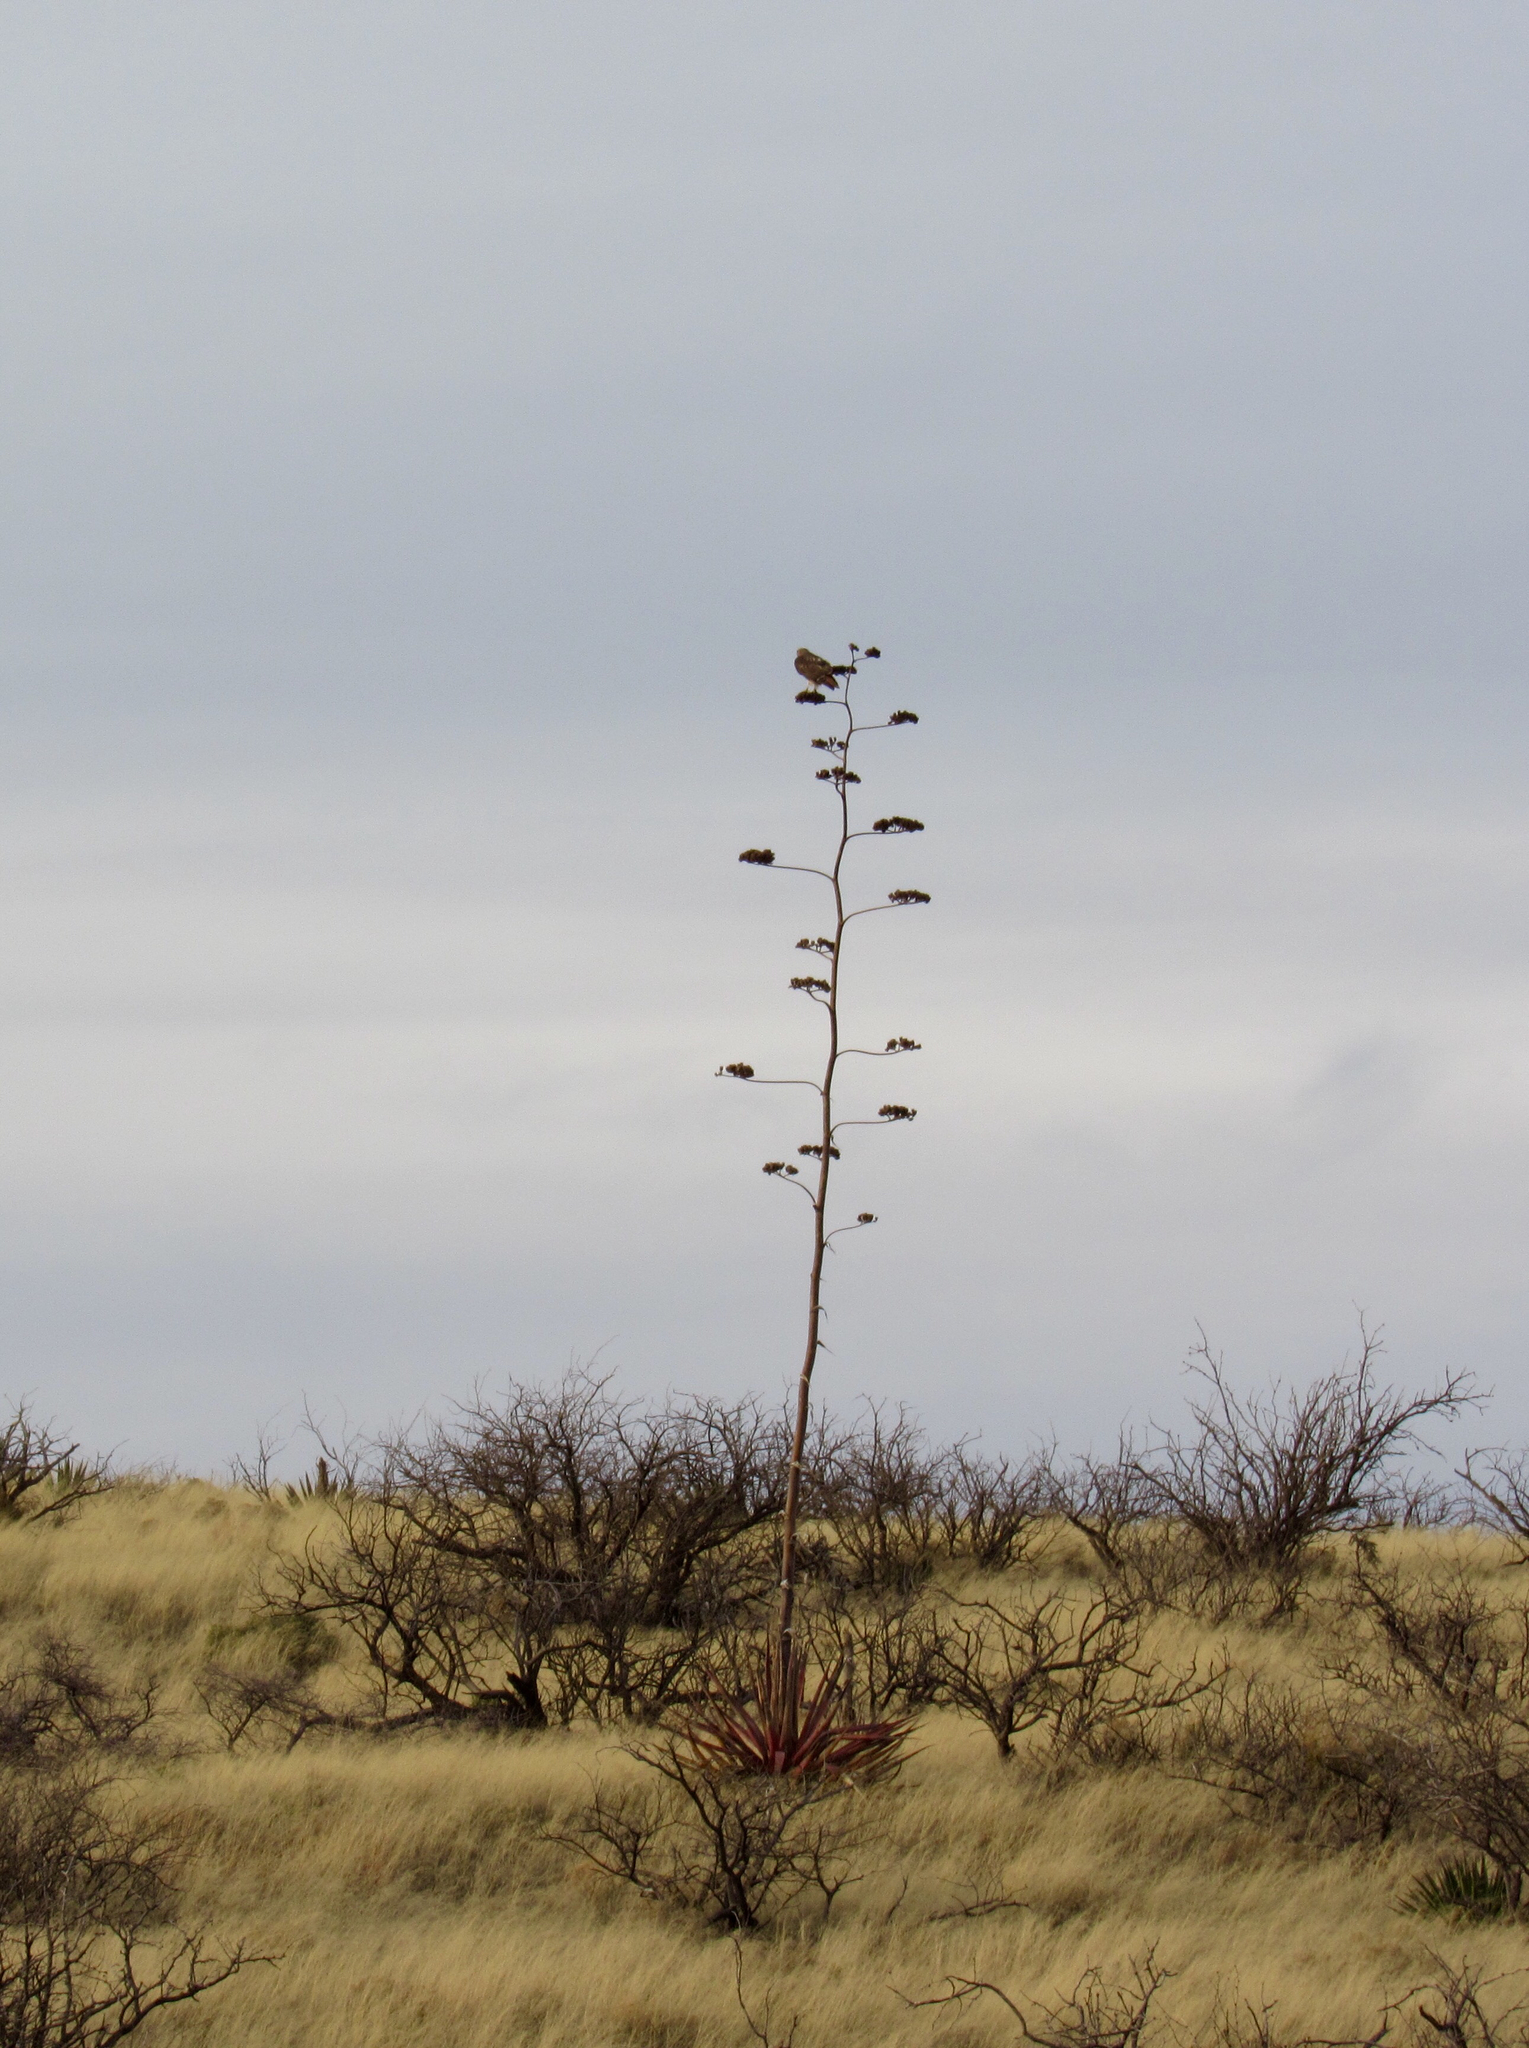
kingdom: Plantae
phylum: Tracheophyta
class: Liliopsida
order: Asparagales
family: Asparagaceae
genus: Agave
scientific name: Agave palmeri
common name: Palmer agave
